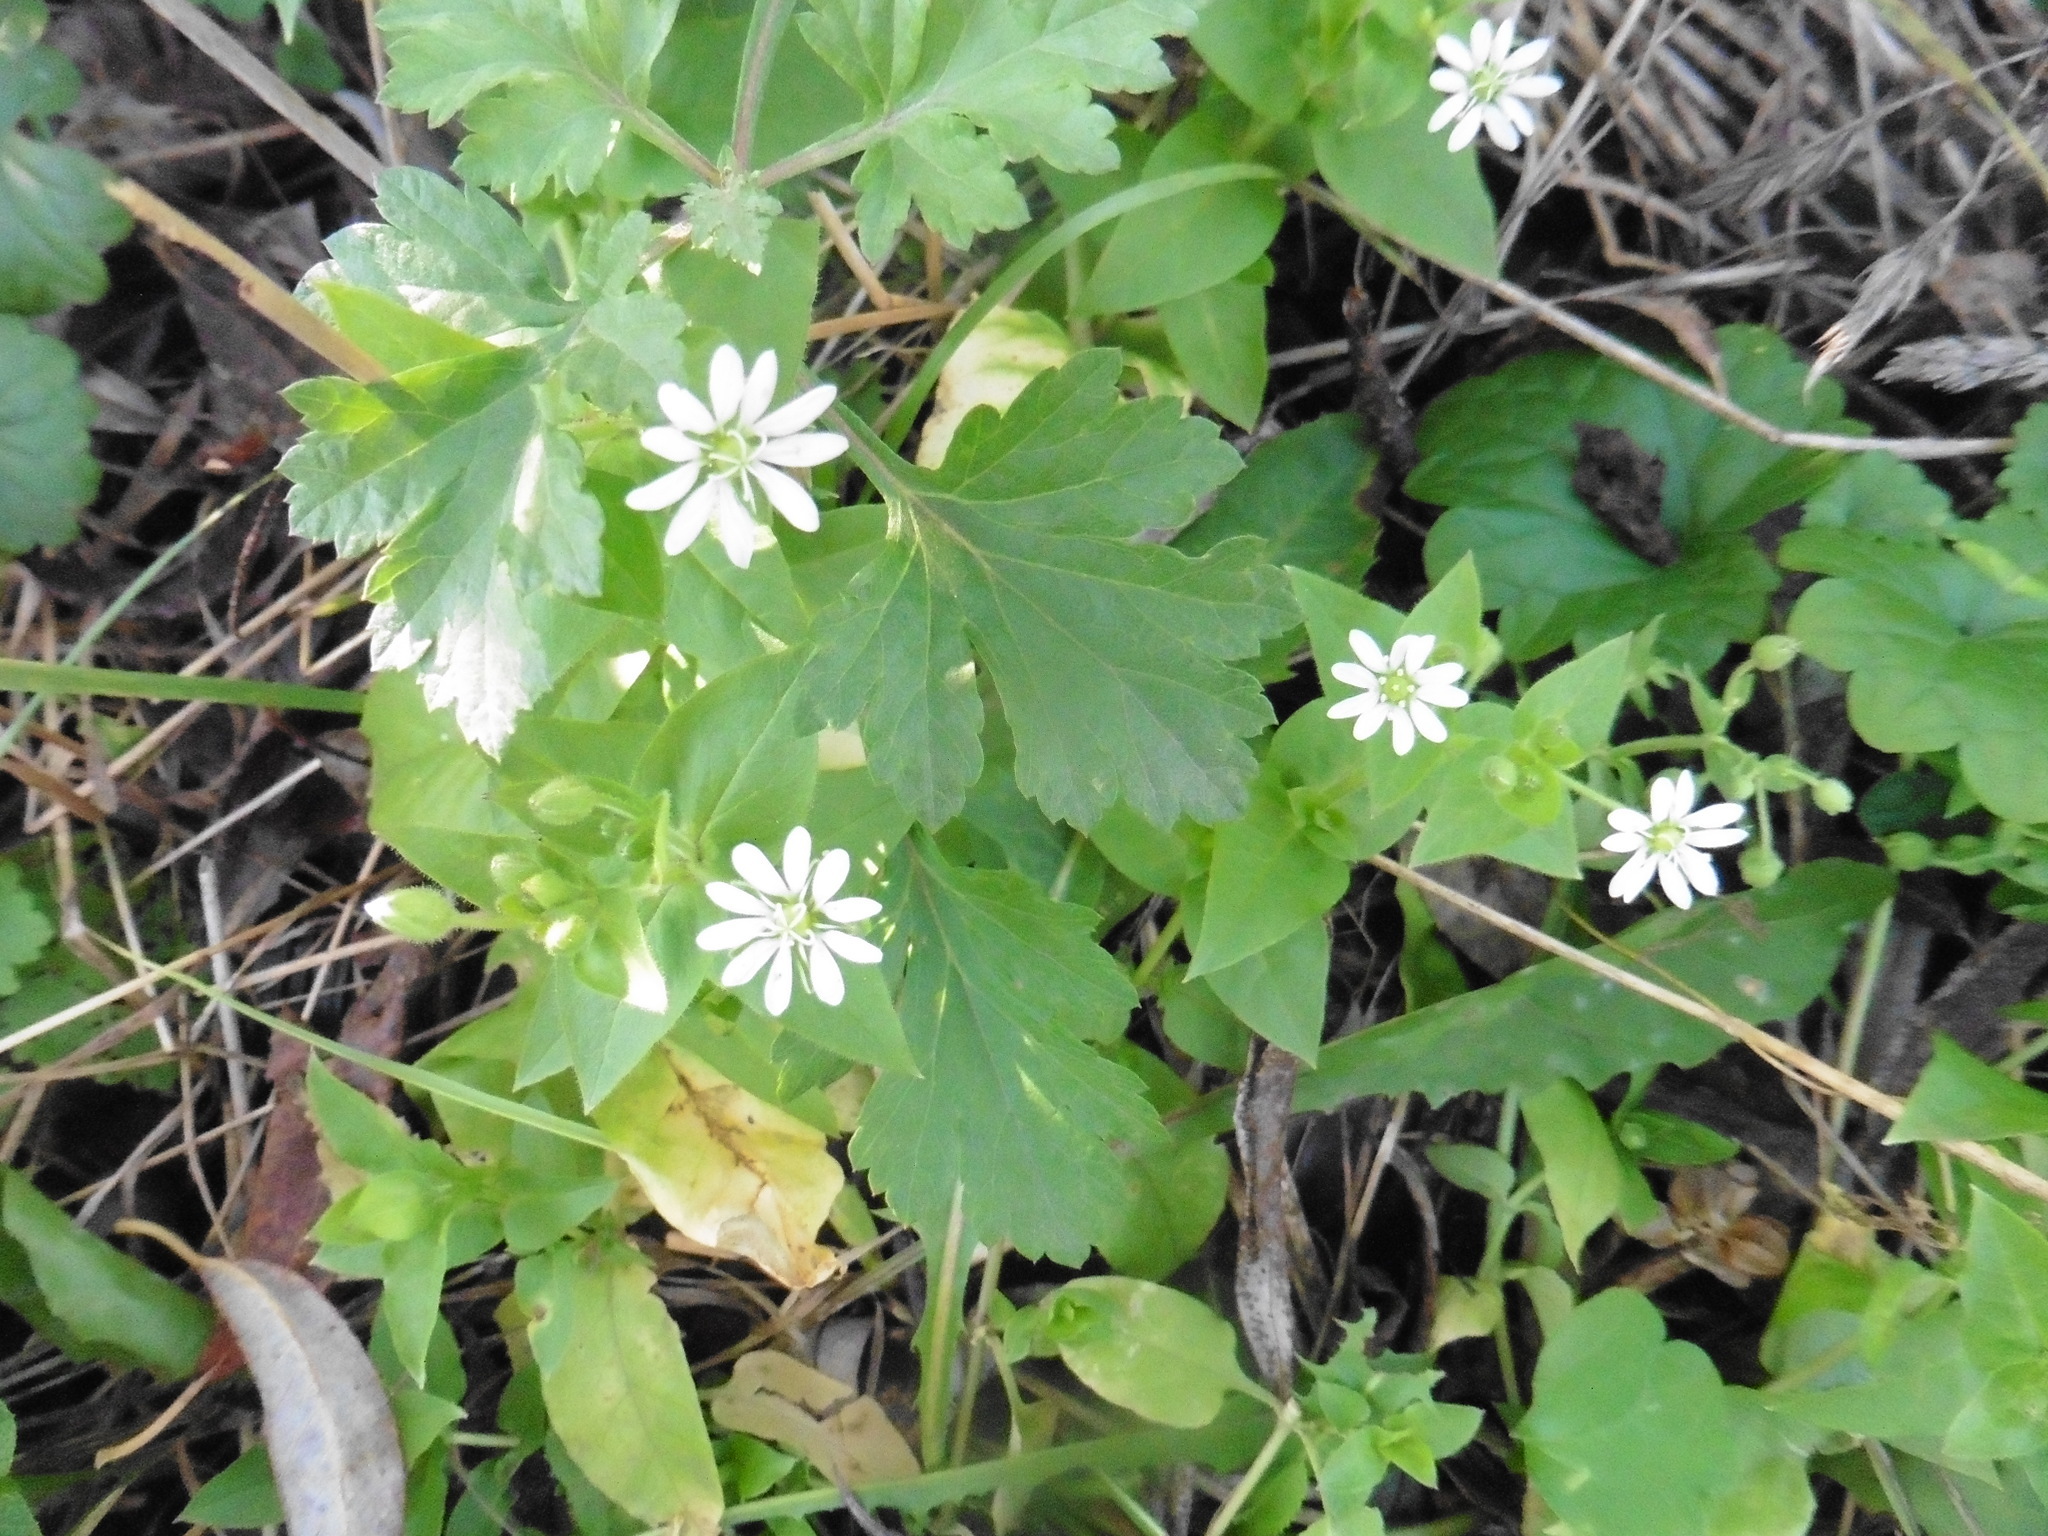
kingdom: Plantae
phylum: Tracheophyta
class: Magnoliopsida
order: Caryophyllales
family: Caryophyllaceae
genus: Stellaria
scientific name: Stellaria aquatica
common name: Water chickweed
